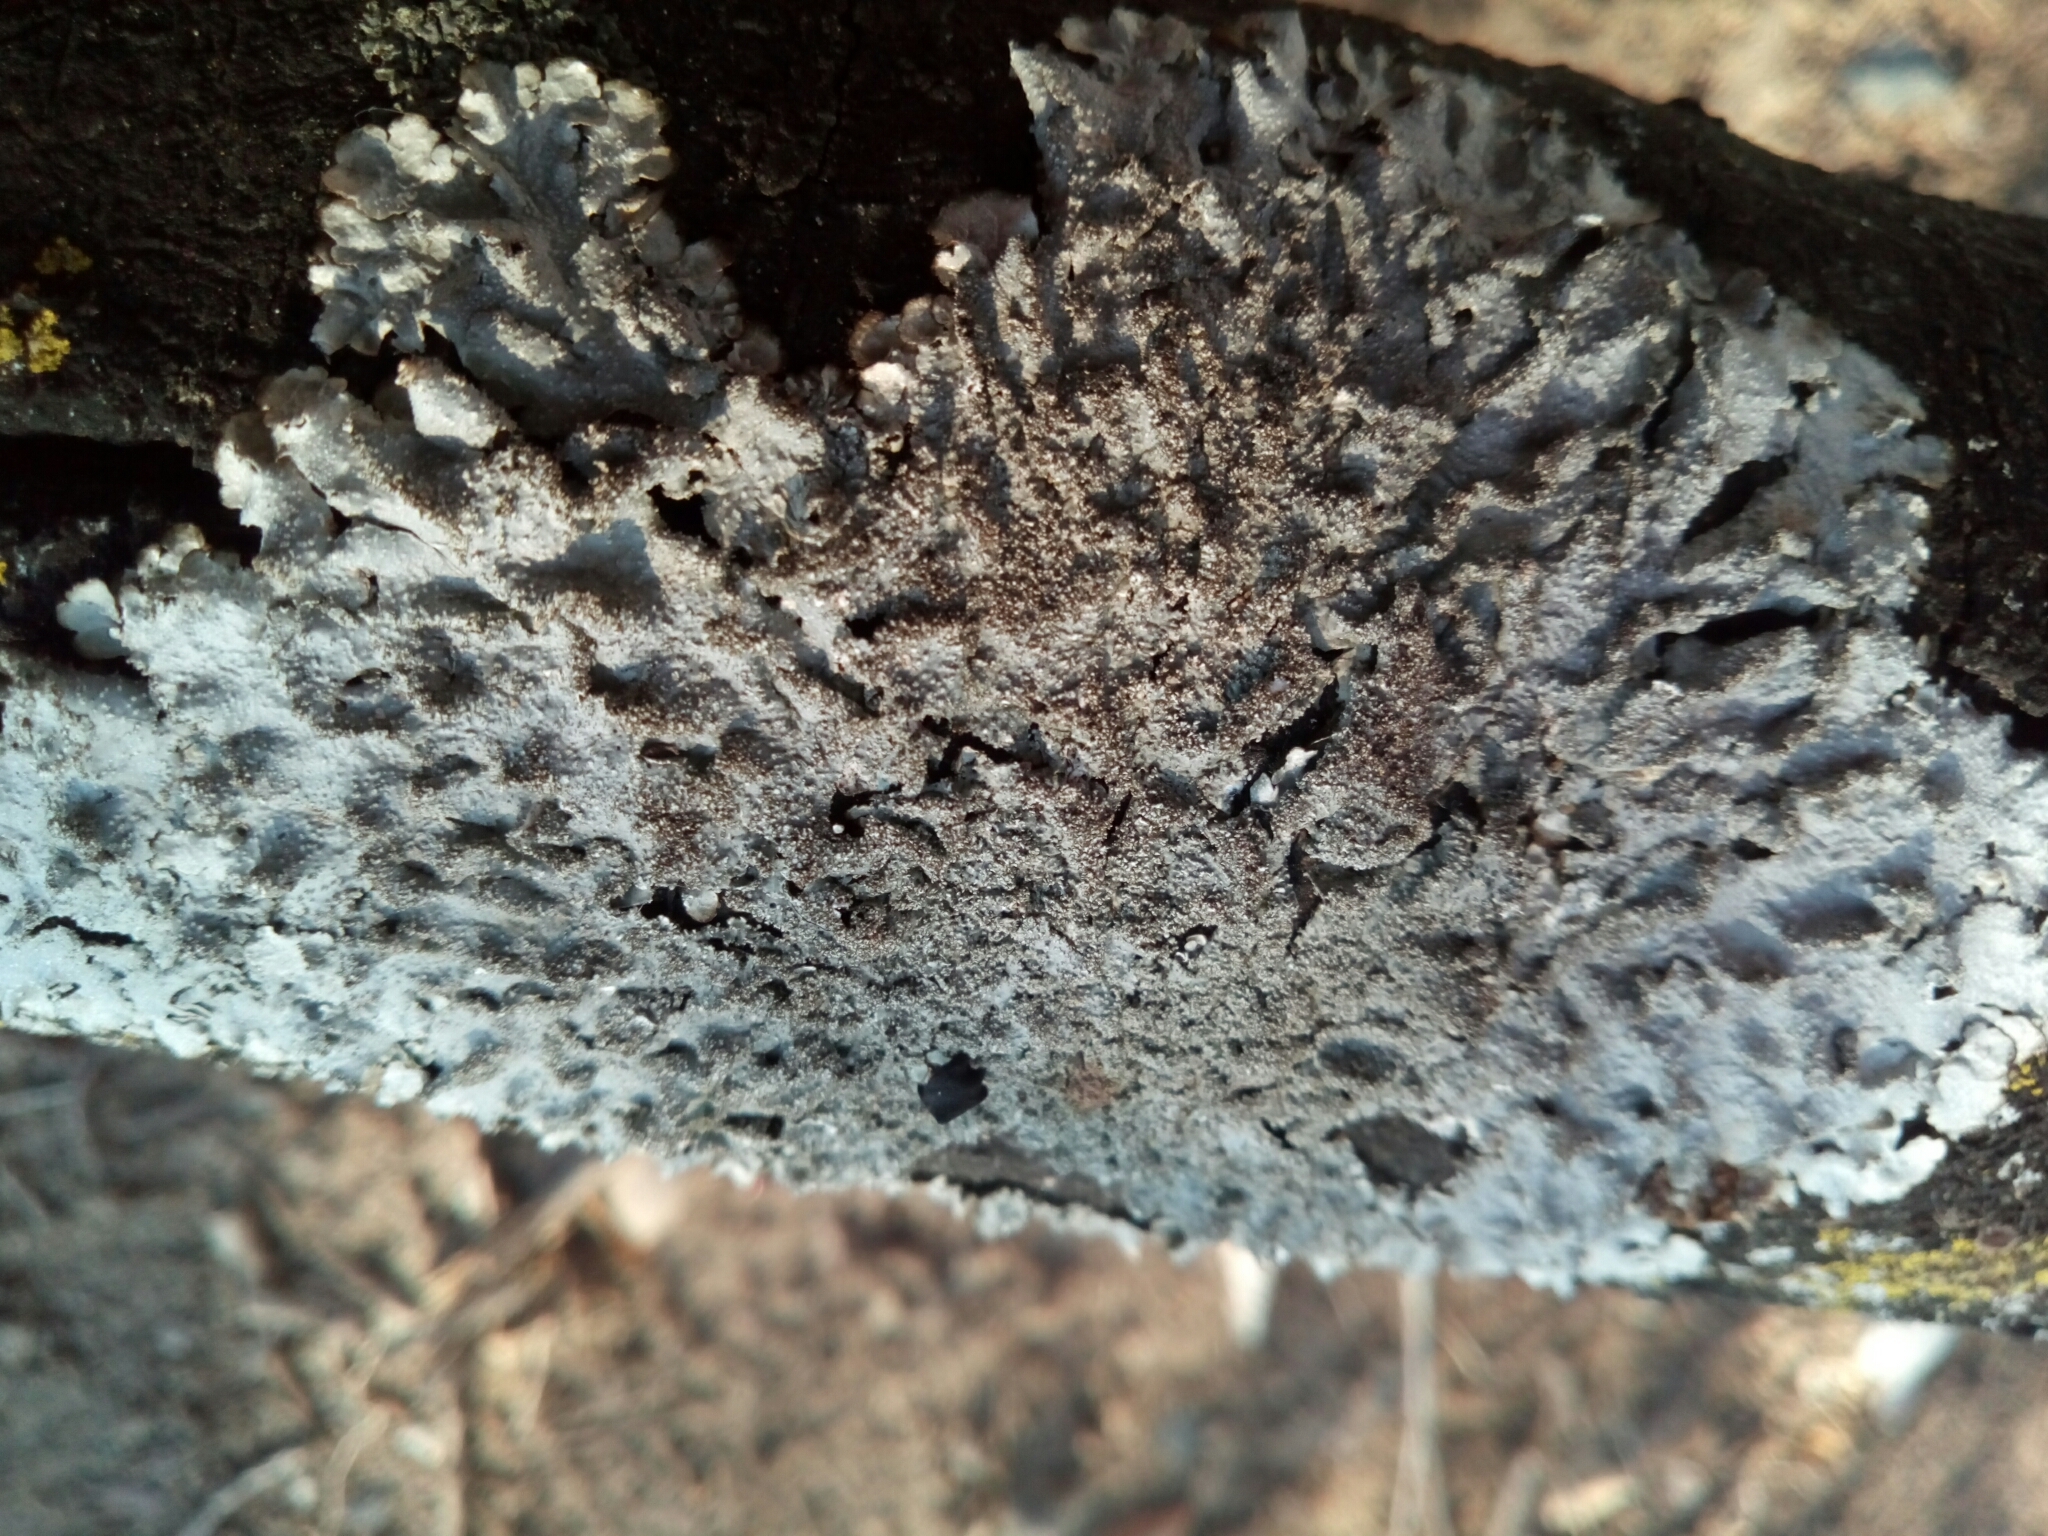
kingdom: Fungi
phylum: Ascomycota
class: Lecanoromycetes
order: Lecanorales
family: Parmeliaceae
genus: Canoparmelia
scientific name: Canoparmelia caroliniana
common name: Carolina shield lichen
